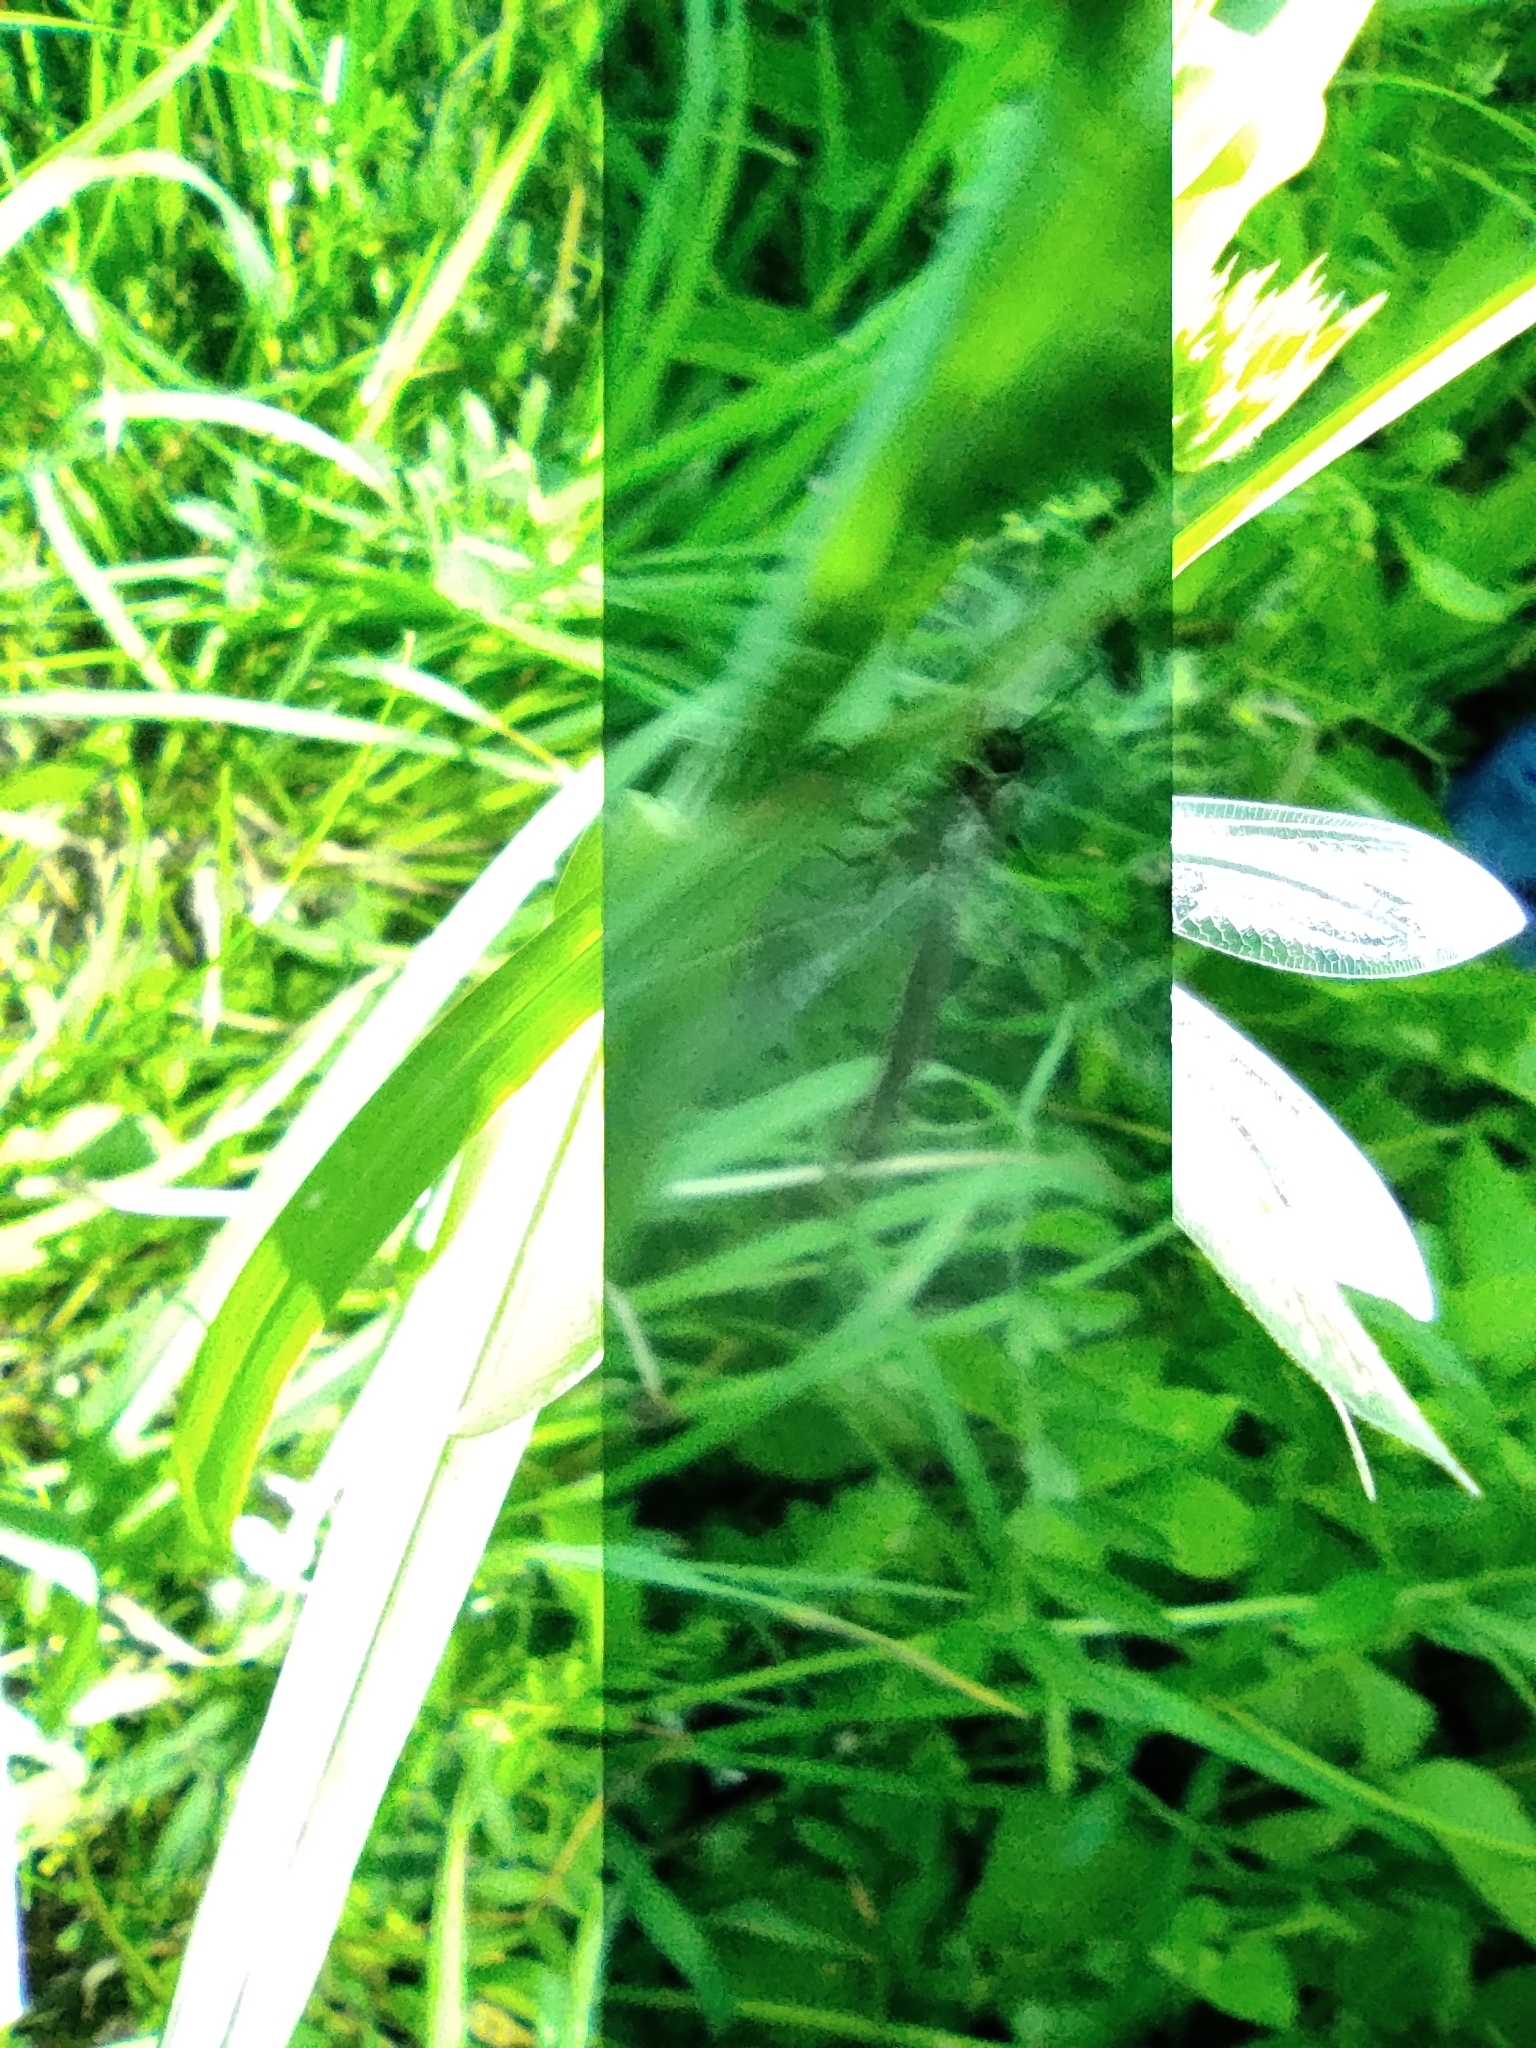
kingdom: Animalia
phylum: Arthropoda
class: Insecta
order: Neuroptera
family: Myrmeleontidae
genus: Myrmeleon
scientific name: Myrmeleon formicarius
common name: Ant-lion
